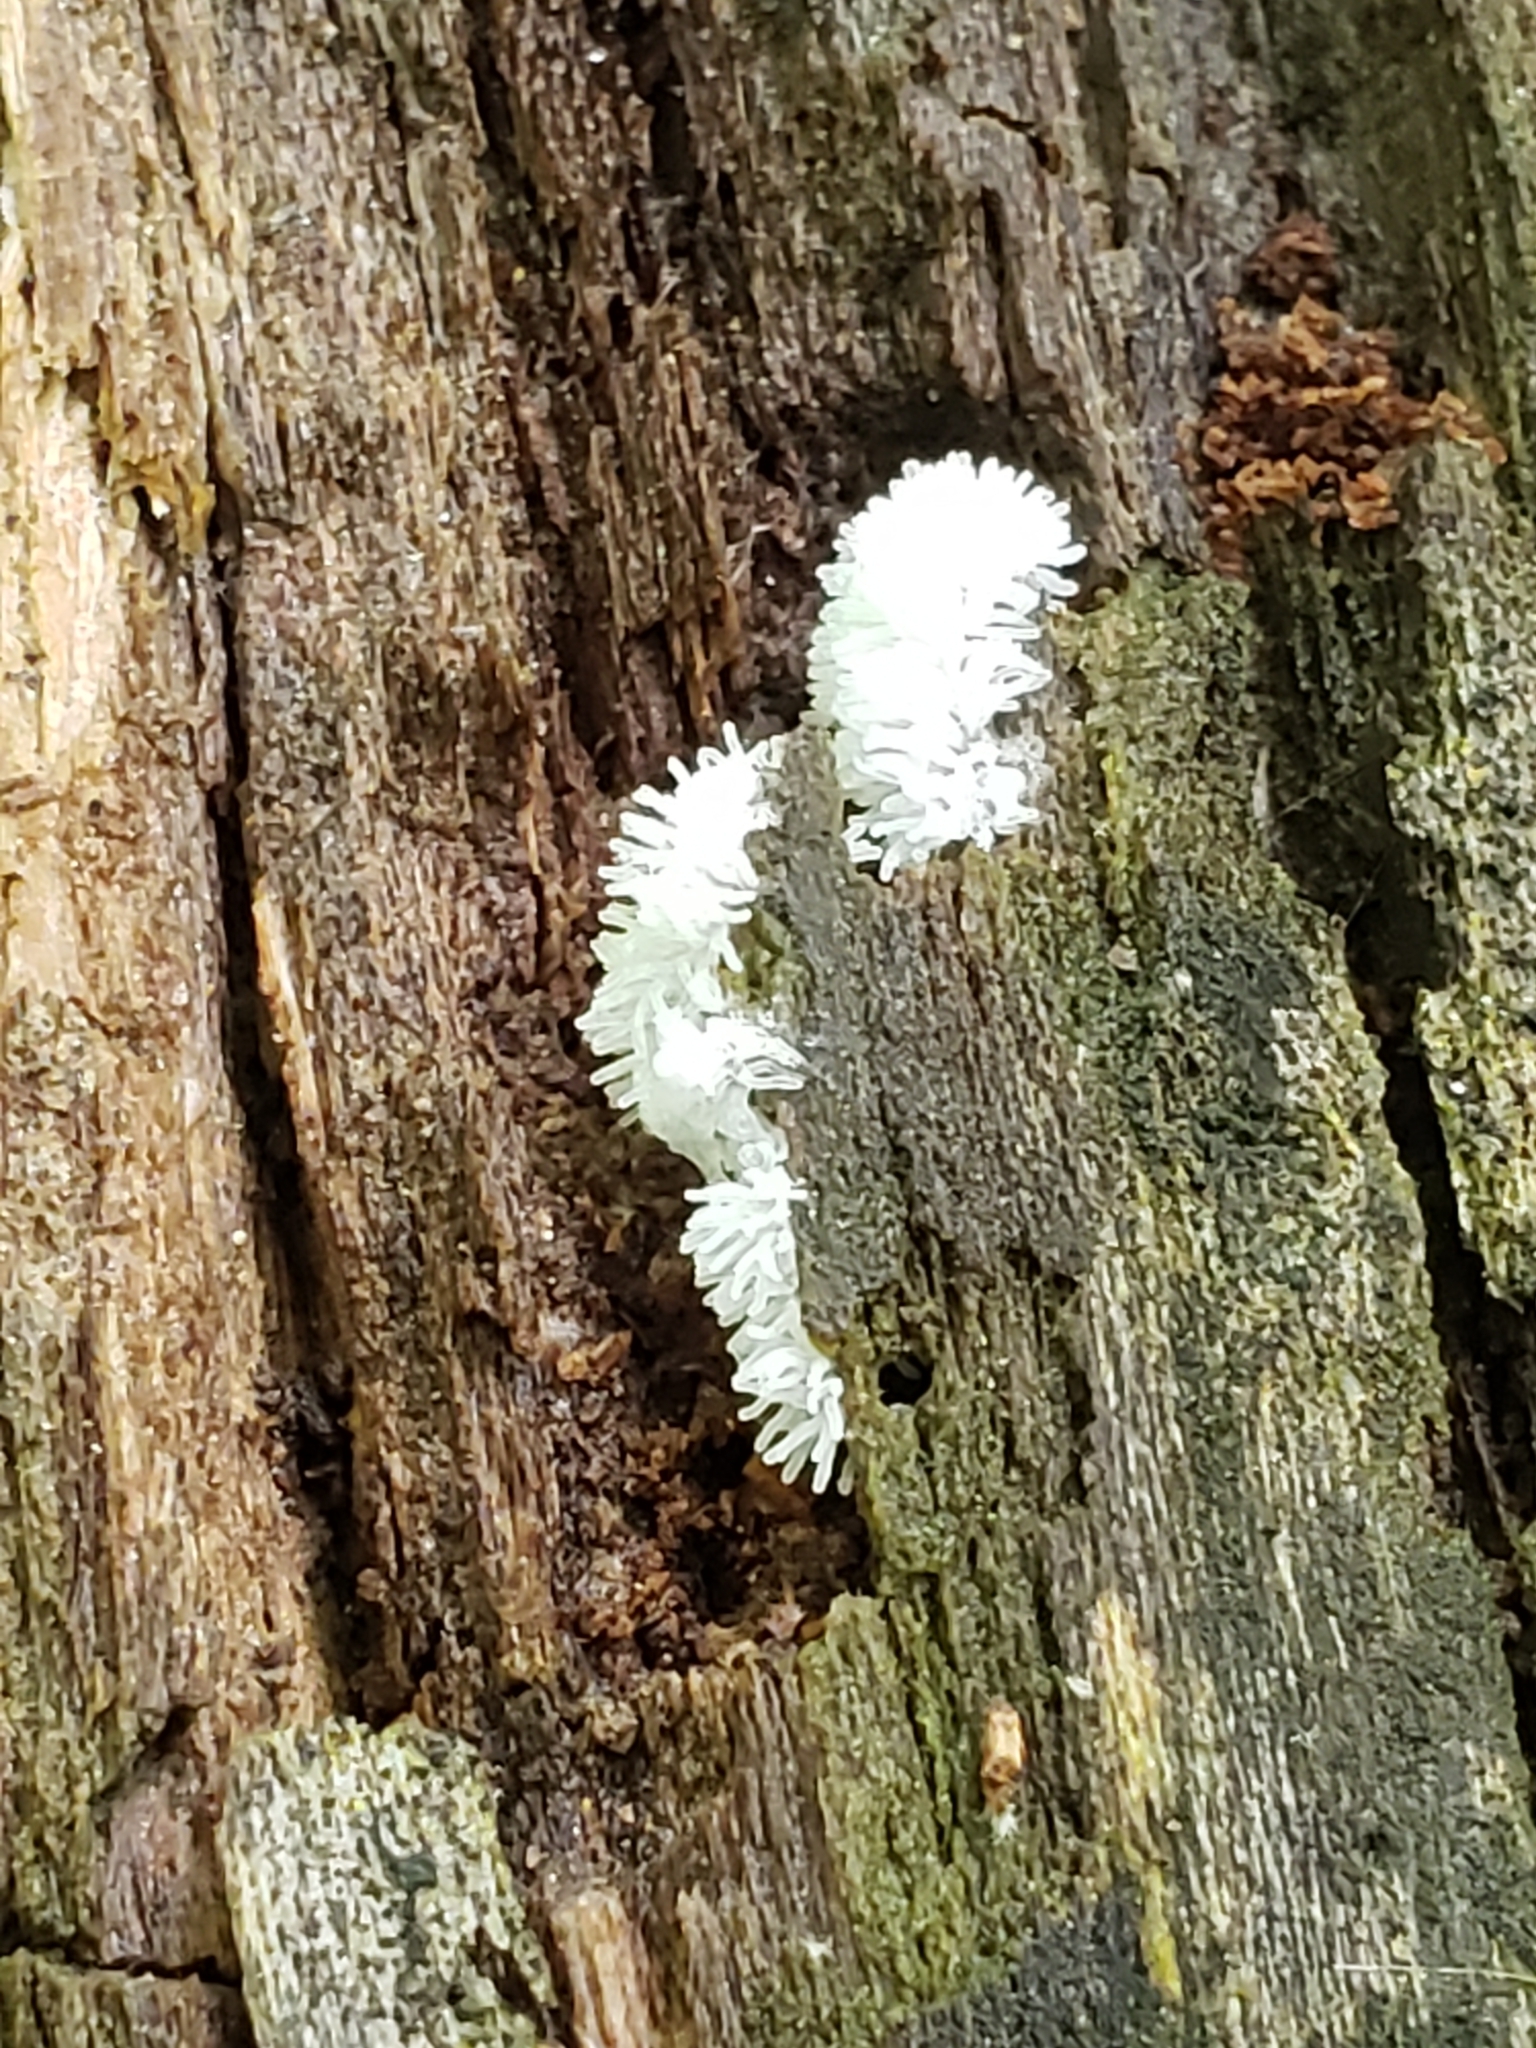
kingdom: Protozoa
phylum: Mycetozoa
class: Protosteliomycetes
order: Ceratiomyxales
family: Ceratiomyxaceae
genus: Ceratiomyxa
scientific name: Ceratiomyxa fruticulosa
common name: Honeycomb coral slime mold
